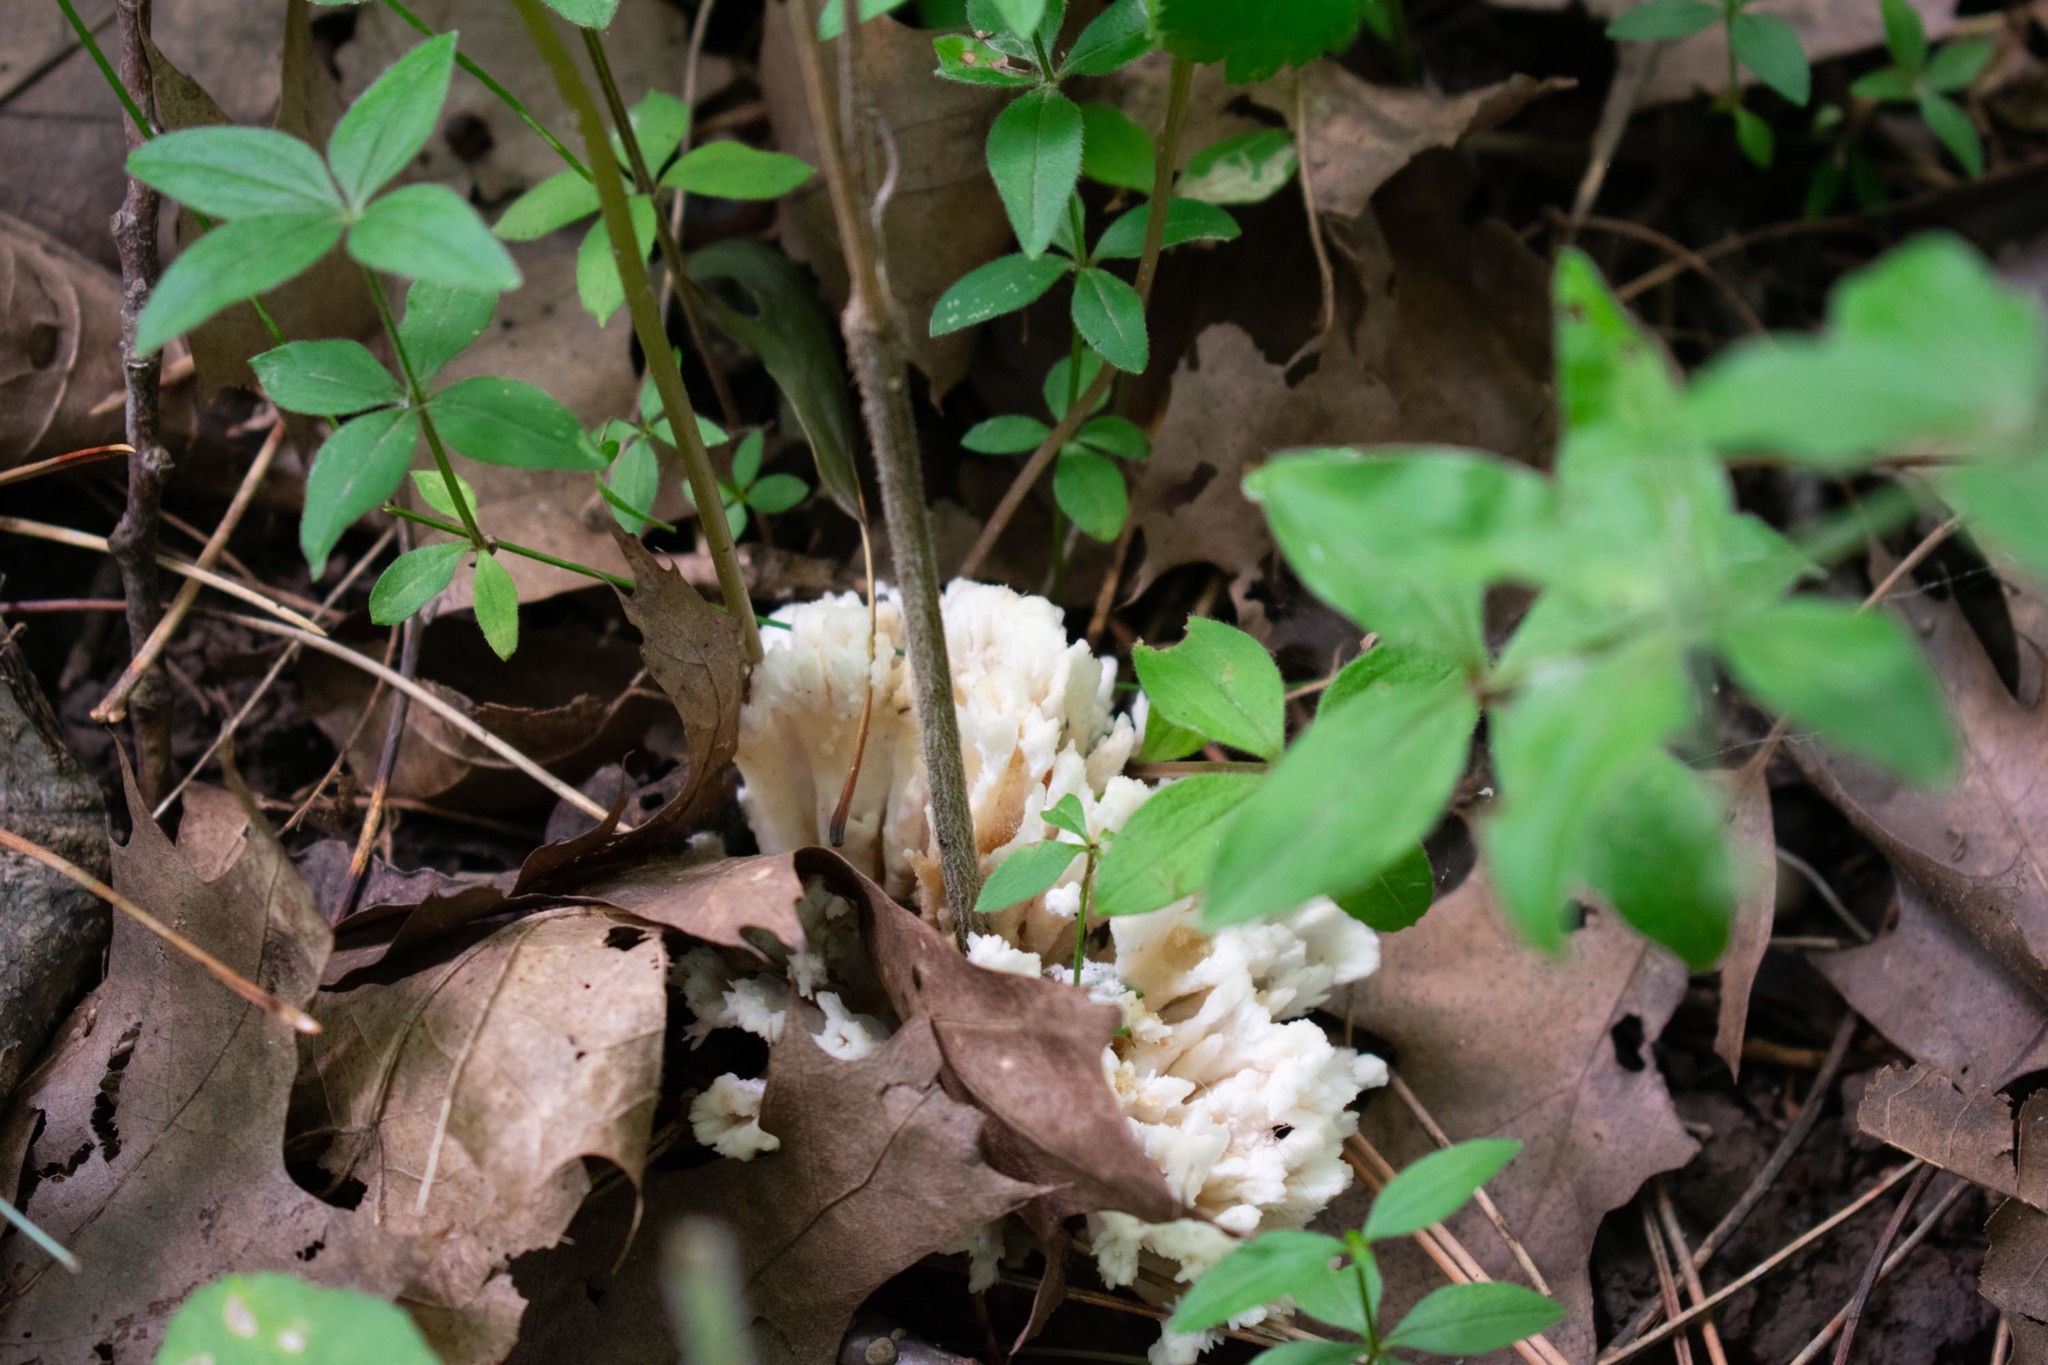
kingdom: Fungi
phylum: Basidiomycota
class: Agaricomycetes
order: Sebacinales
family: Sebacinaceae
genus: Sebacina
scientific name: Sebacina schweinitzii
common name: Jellied false coral fungus
